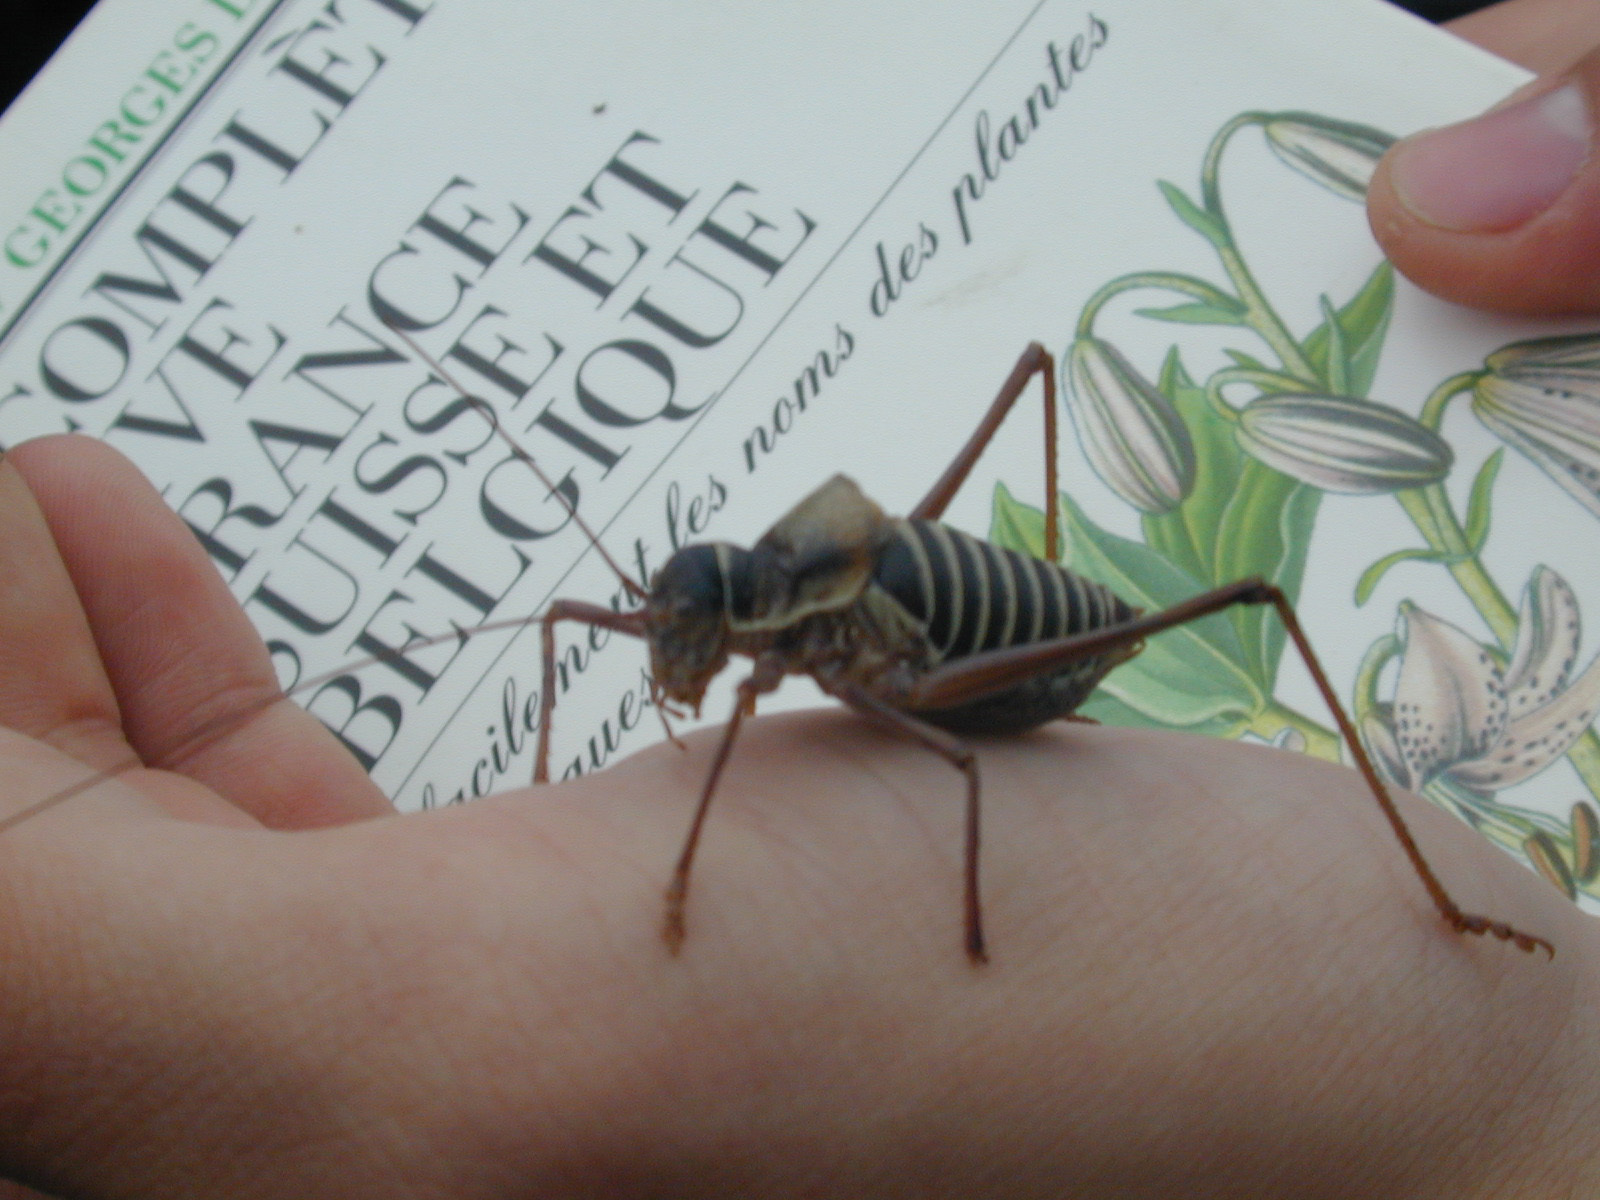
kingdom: Animalia
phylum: Arthropoda
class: Insecta
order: Orthoptera
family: Tettigoniidae
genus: Ephippiger
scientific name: Ephippiger diurnus
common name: Western saddle bush-cricket
